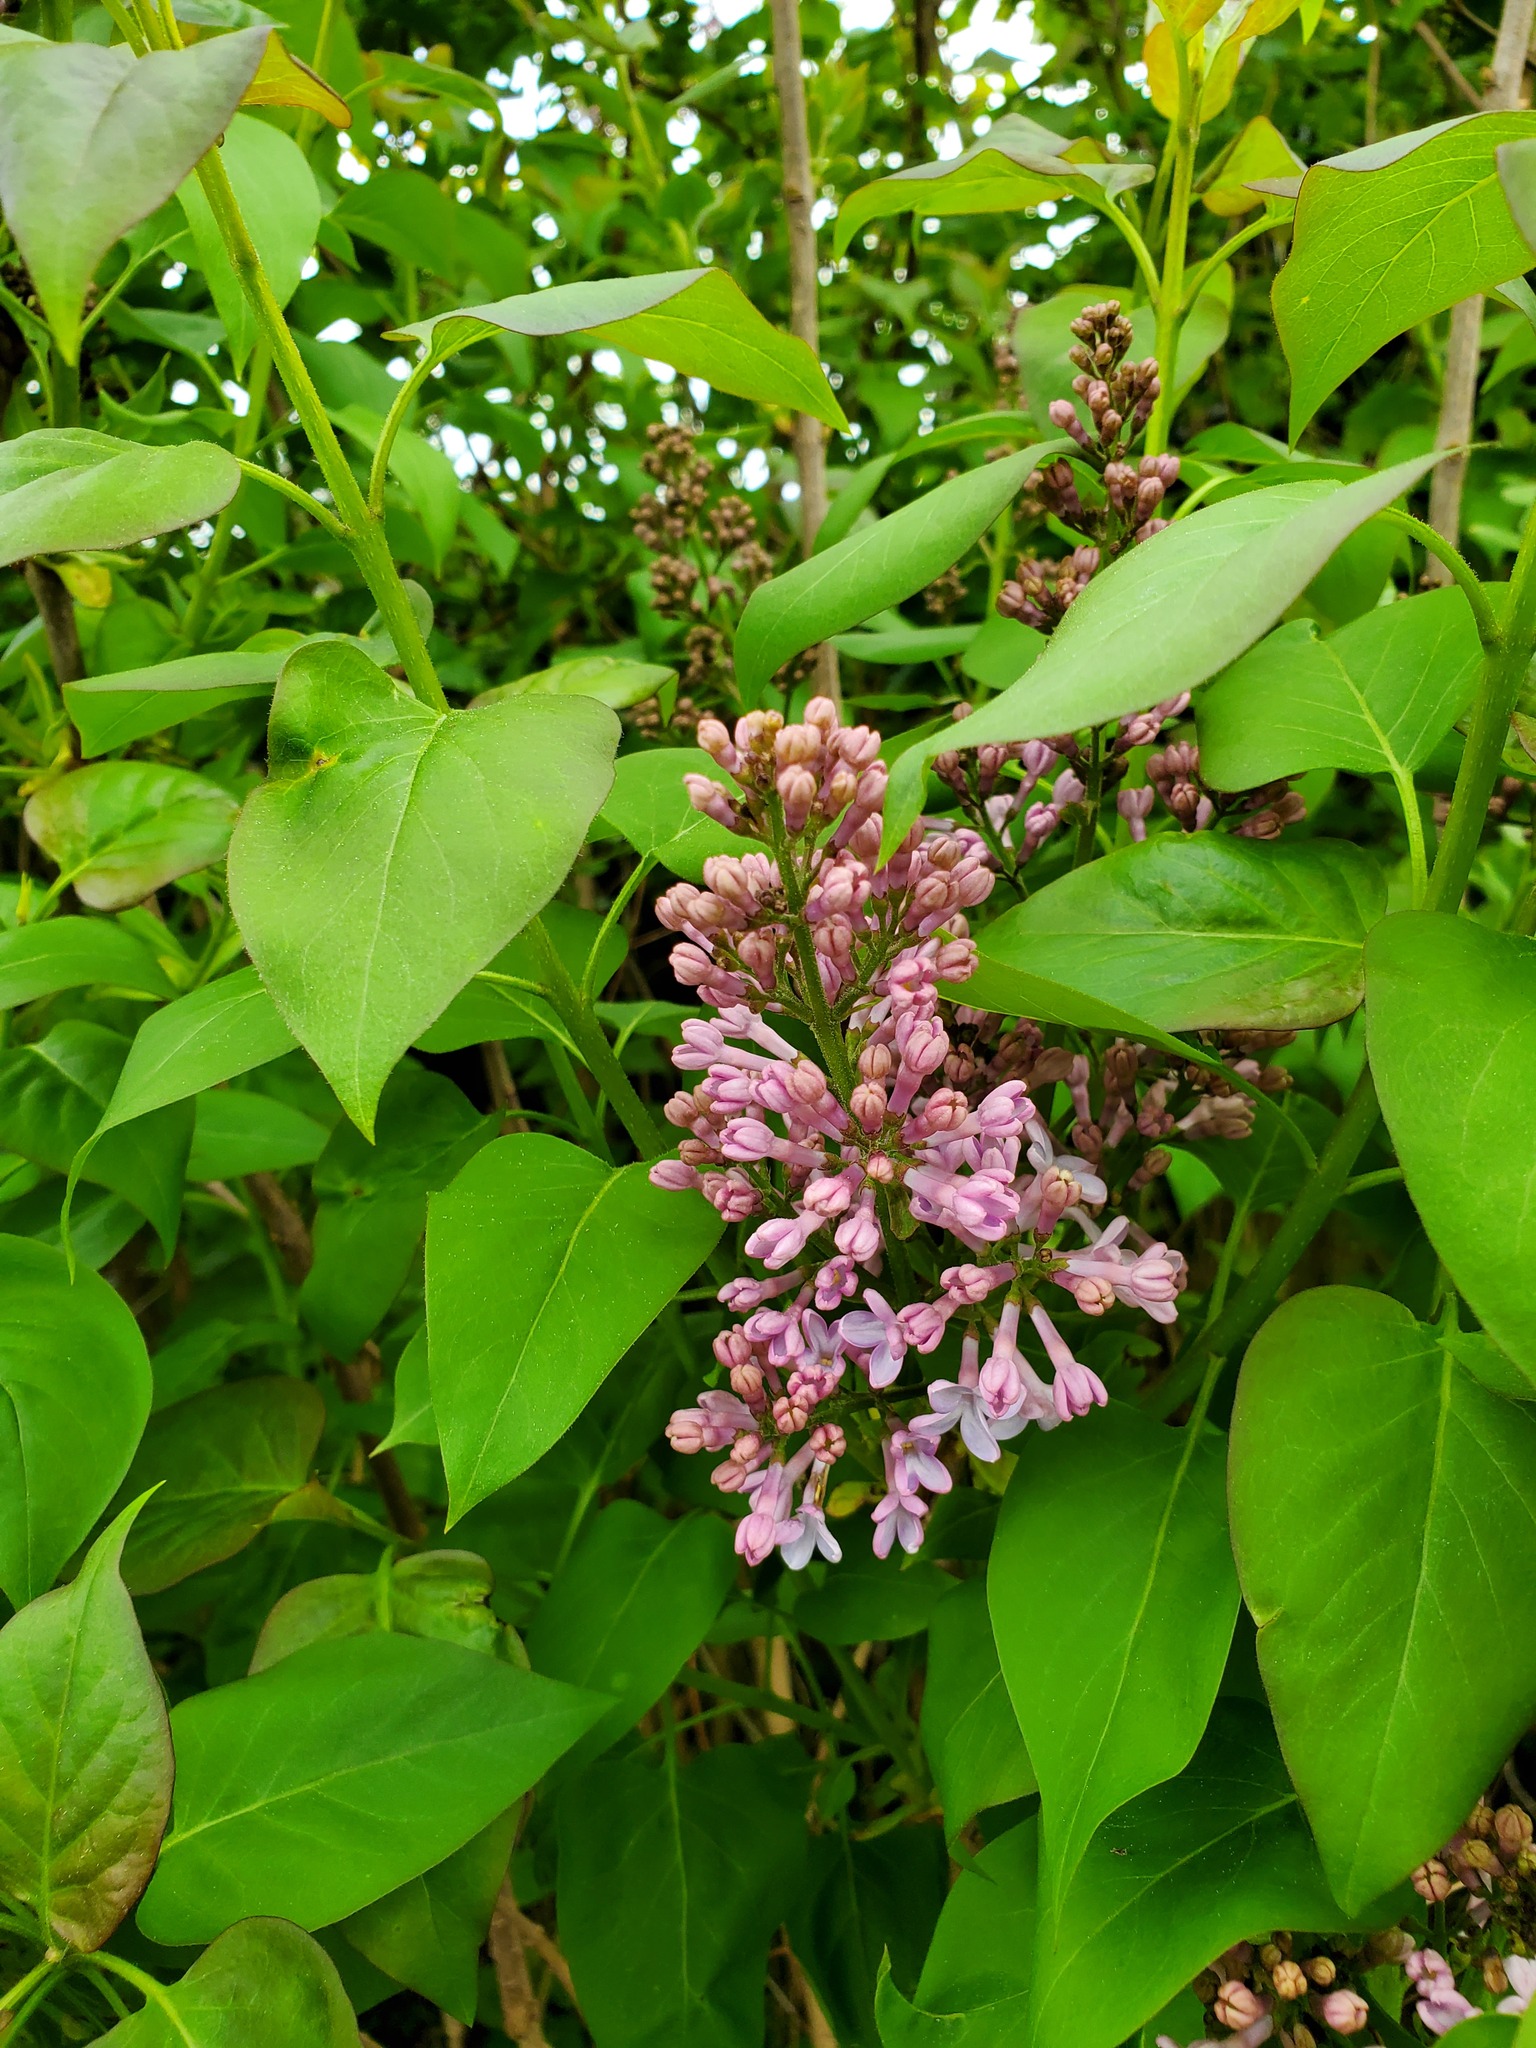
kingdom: Plantae
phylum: Tracheophyta
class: Magnoliopsida
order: Lamiales
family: Oleaceae
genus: Syringa
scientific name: Syringa vulgaris
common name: Common lilac
